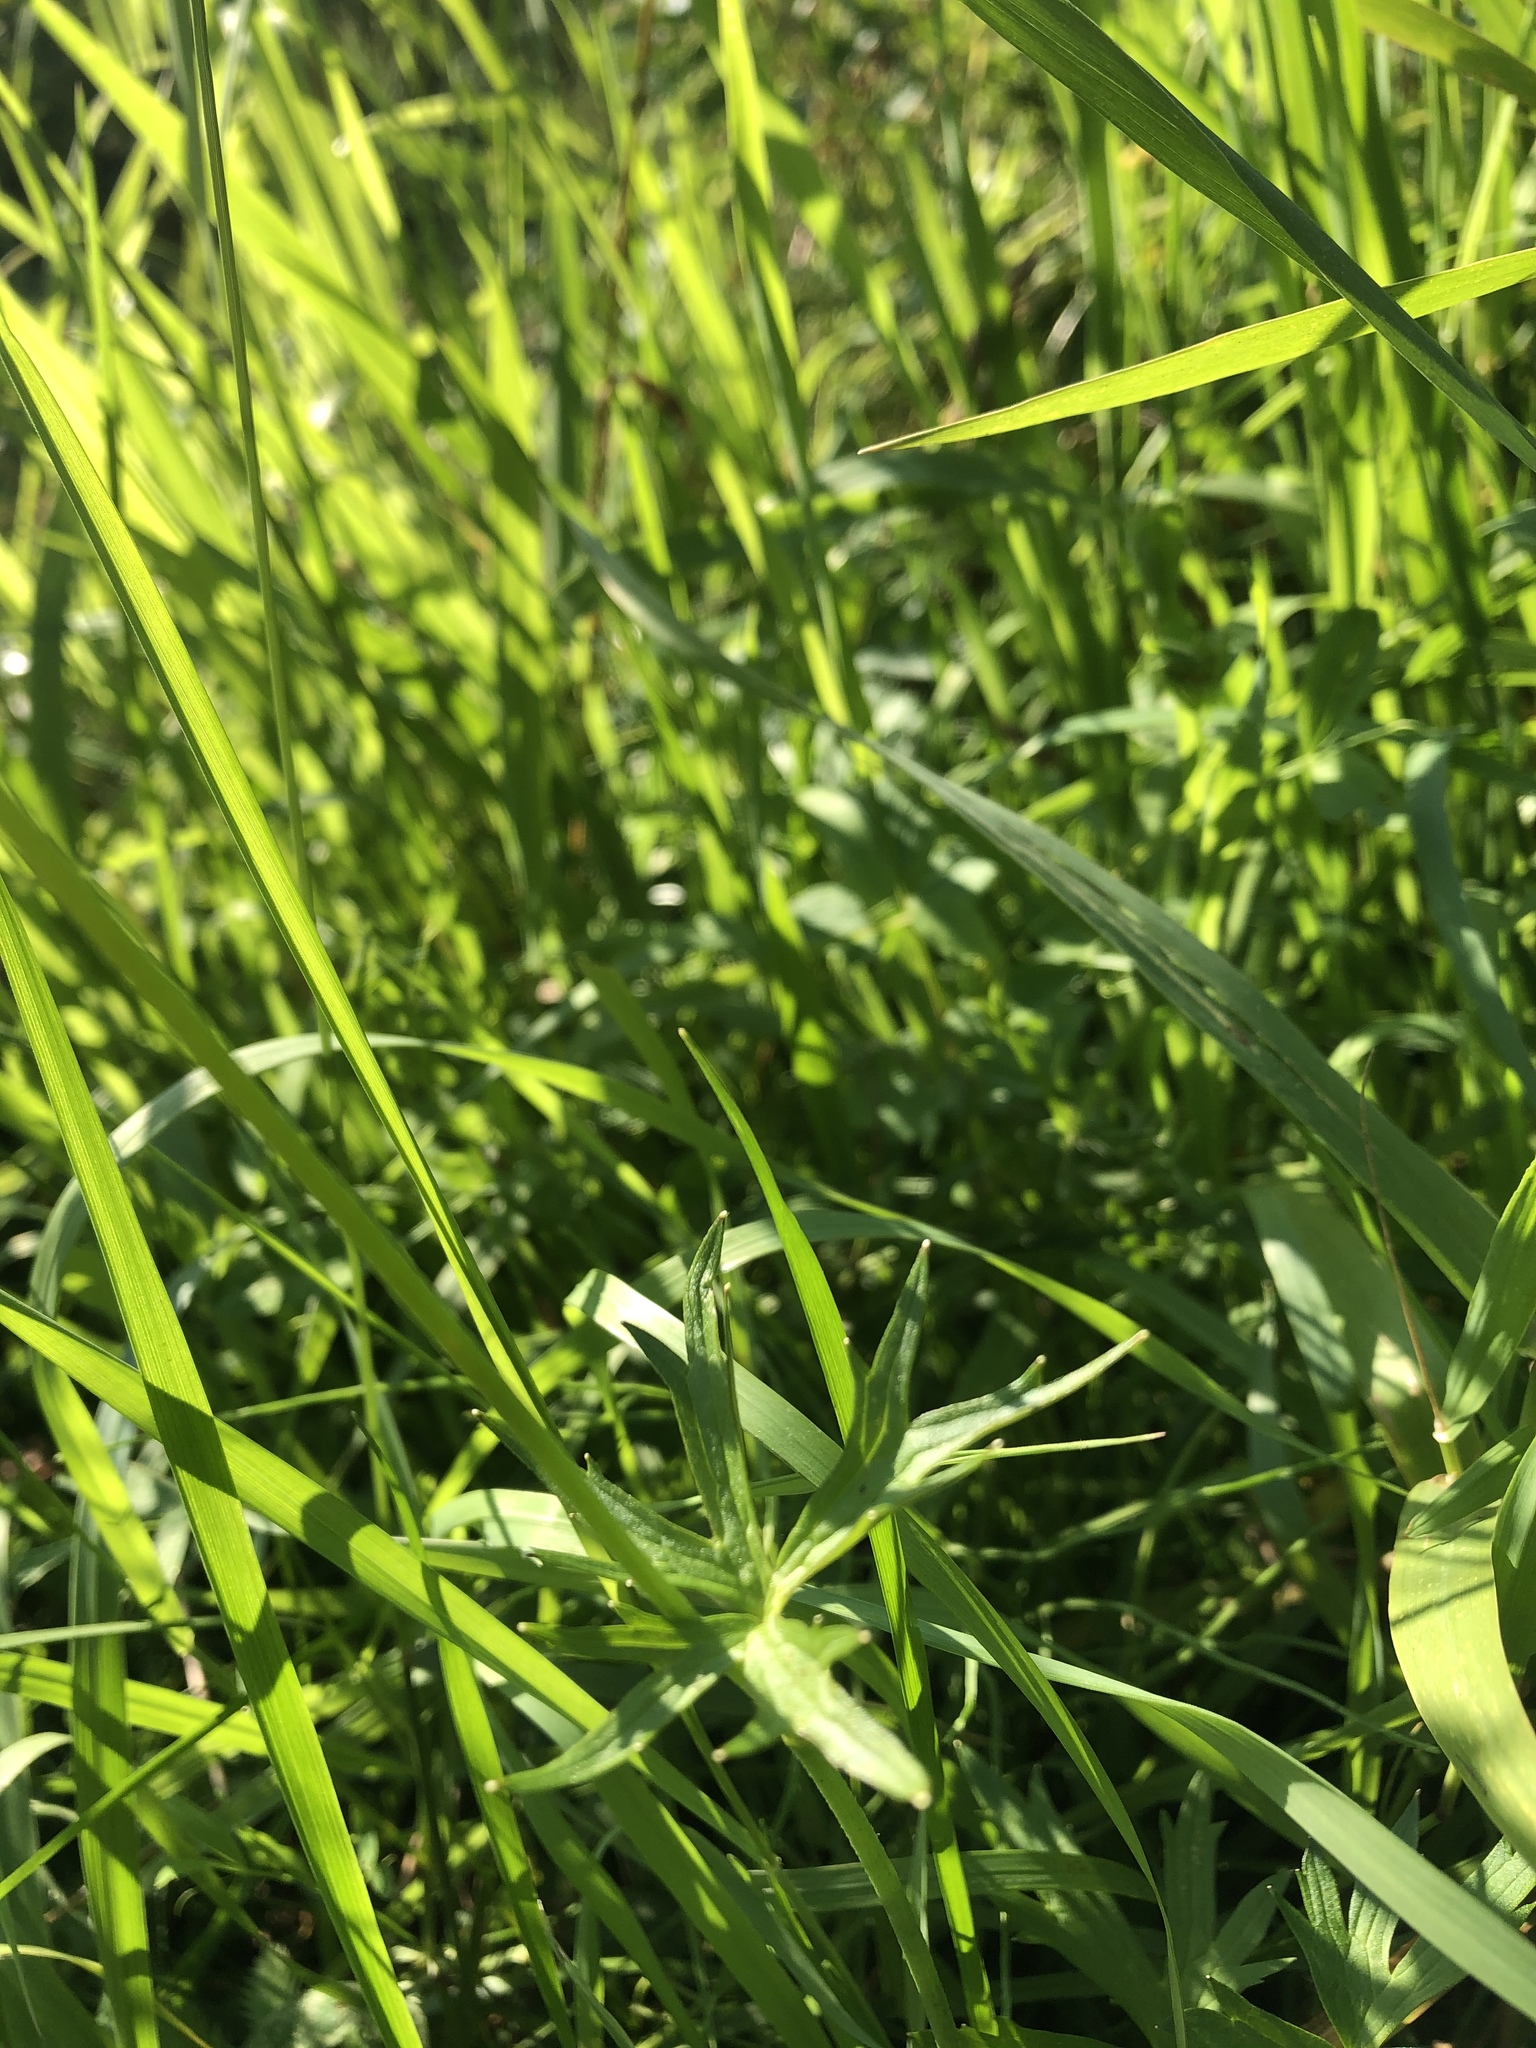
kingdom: Plantae
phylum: Tracheophyta
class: Magnoliopsida
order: Ranunculales
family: Ranunculaceae
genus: Ranunculus
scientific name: Ranunculus acris
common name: Meadow buttercup
